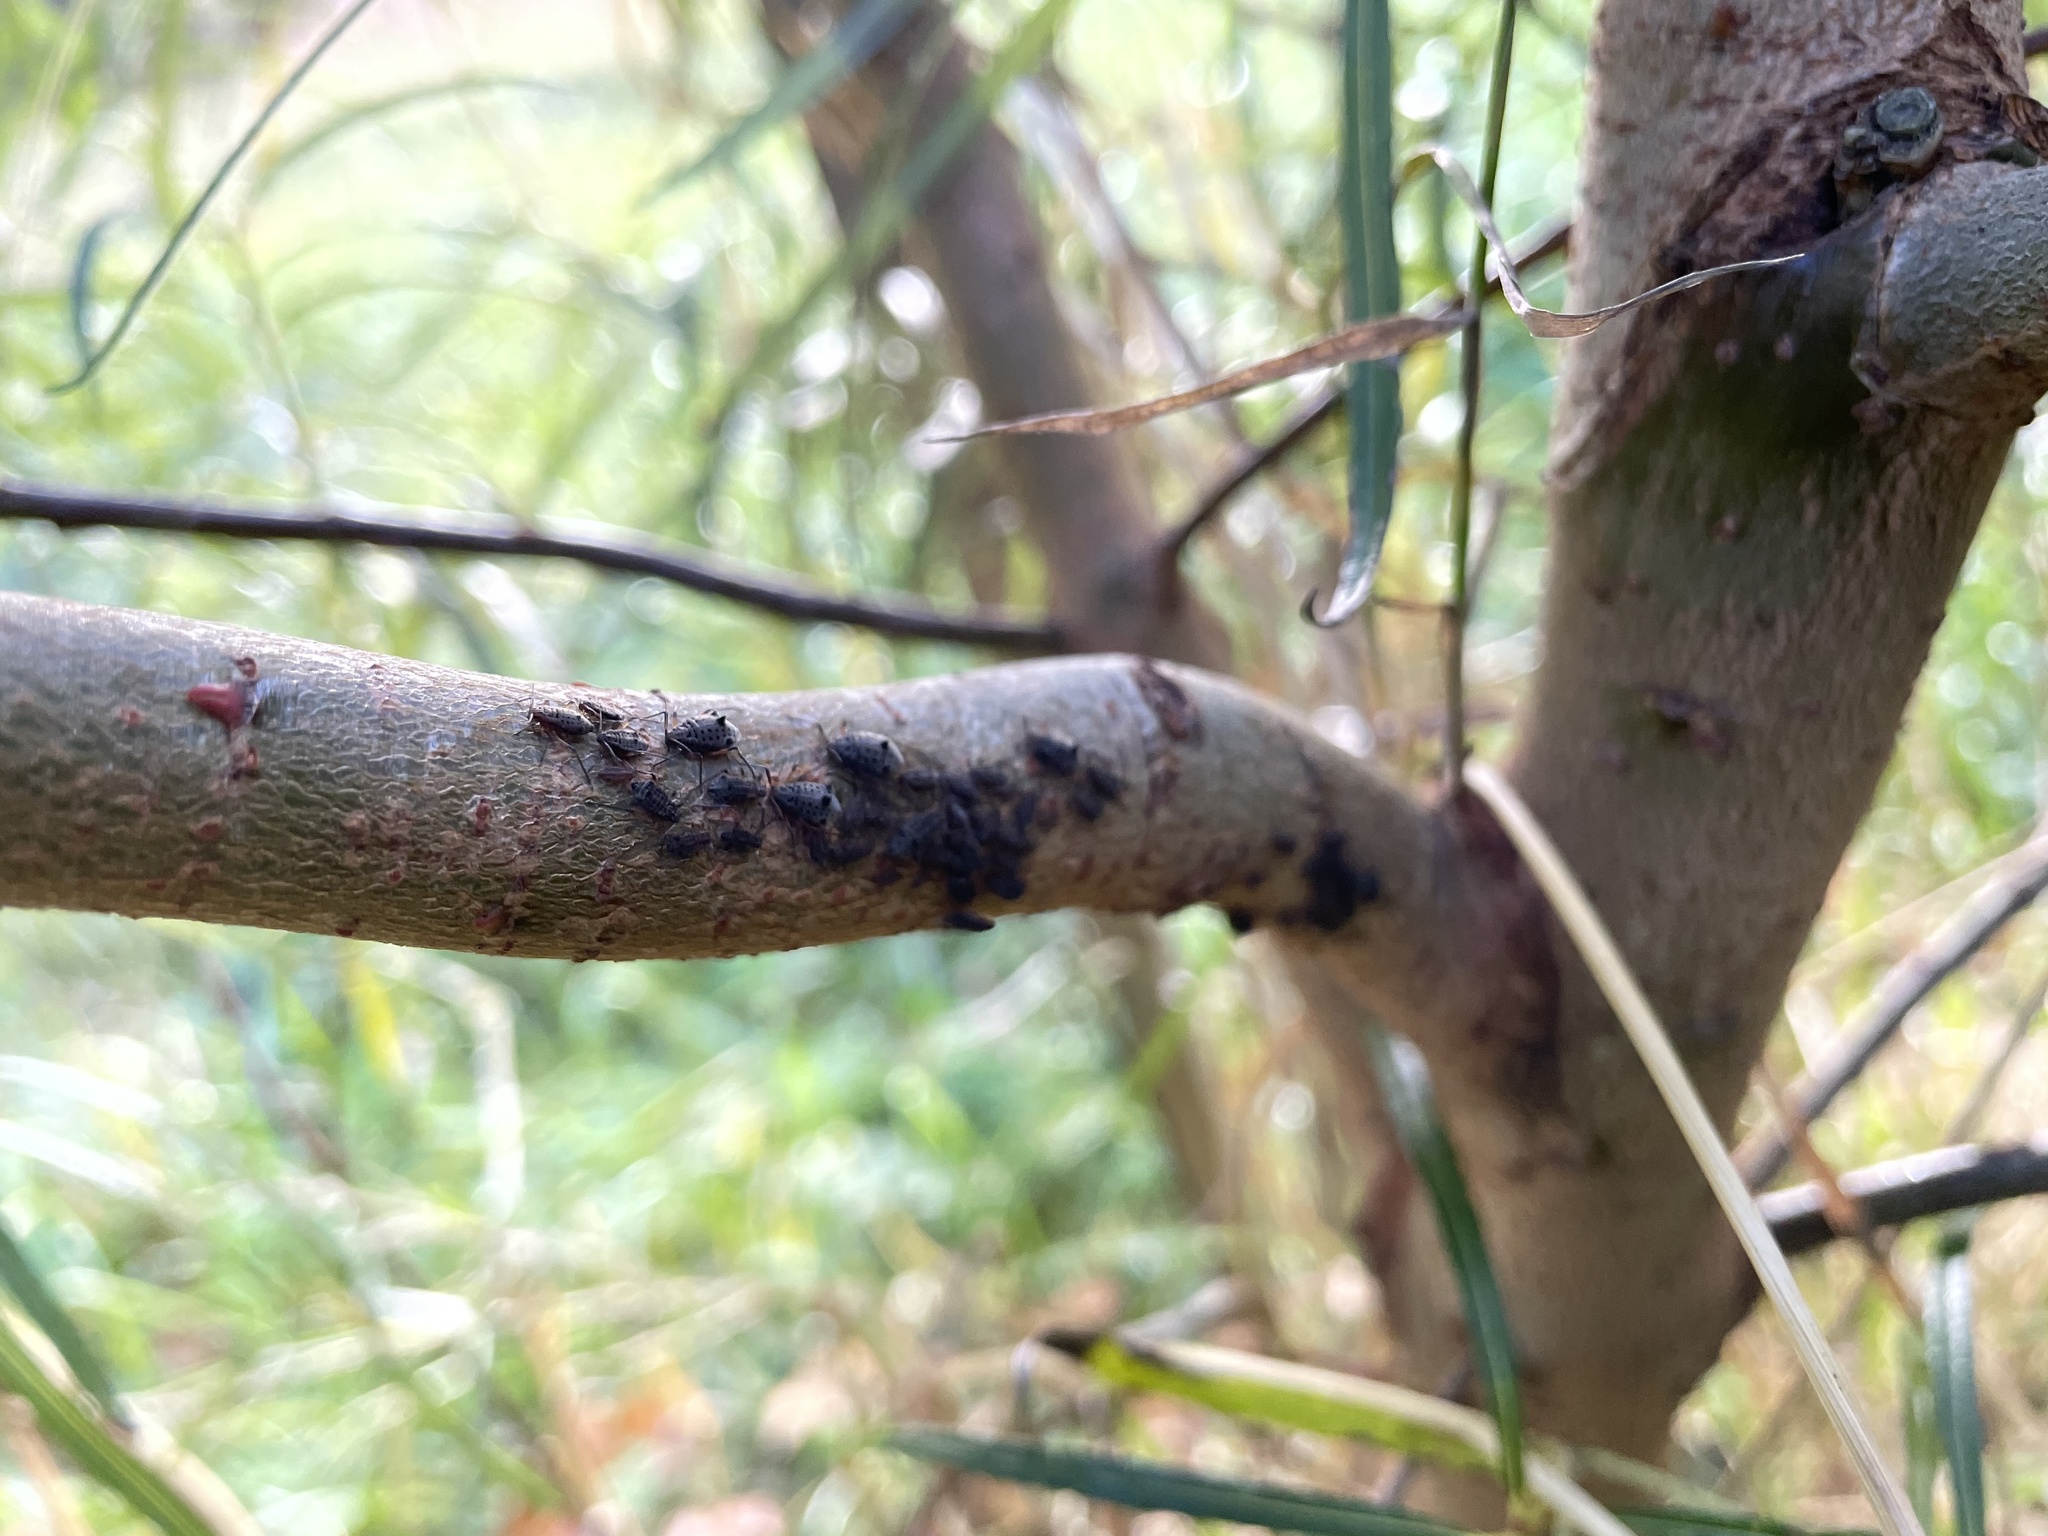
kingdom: Animalia
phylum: Arthropoda
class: Insecta
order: Hemiptera
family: Aphididae
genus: Tuberolachnus
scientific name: Tuberolachnus salignus
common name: Giant willow aphid
